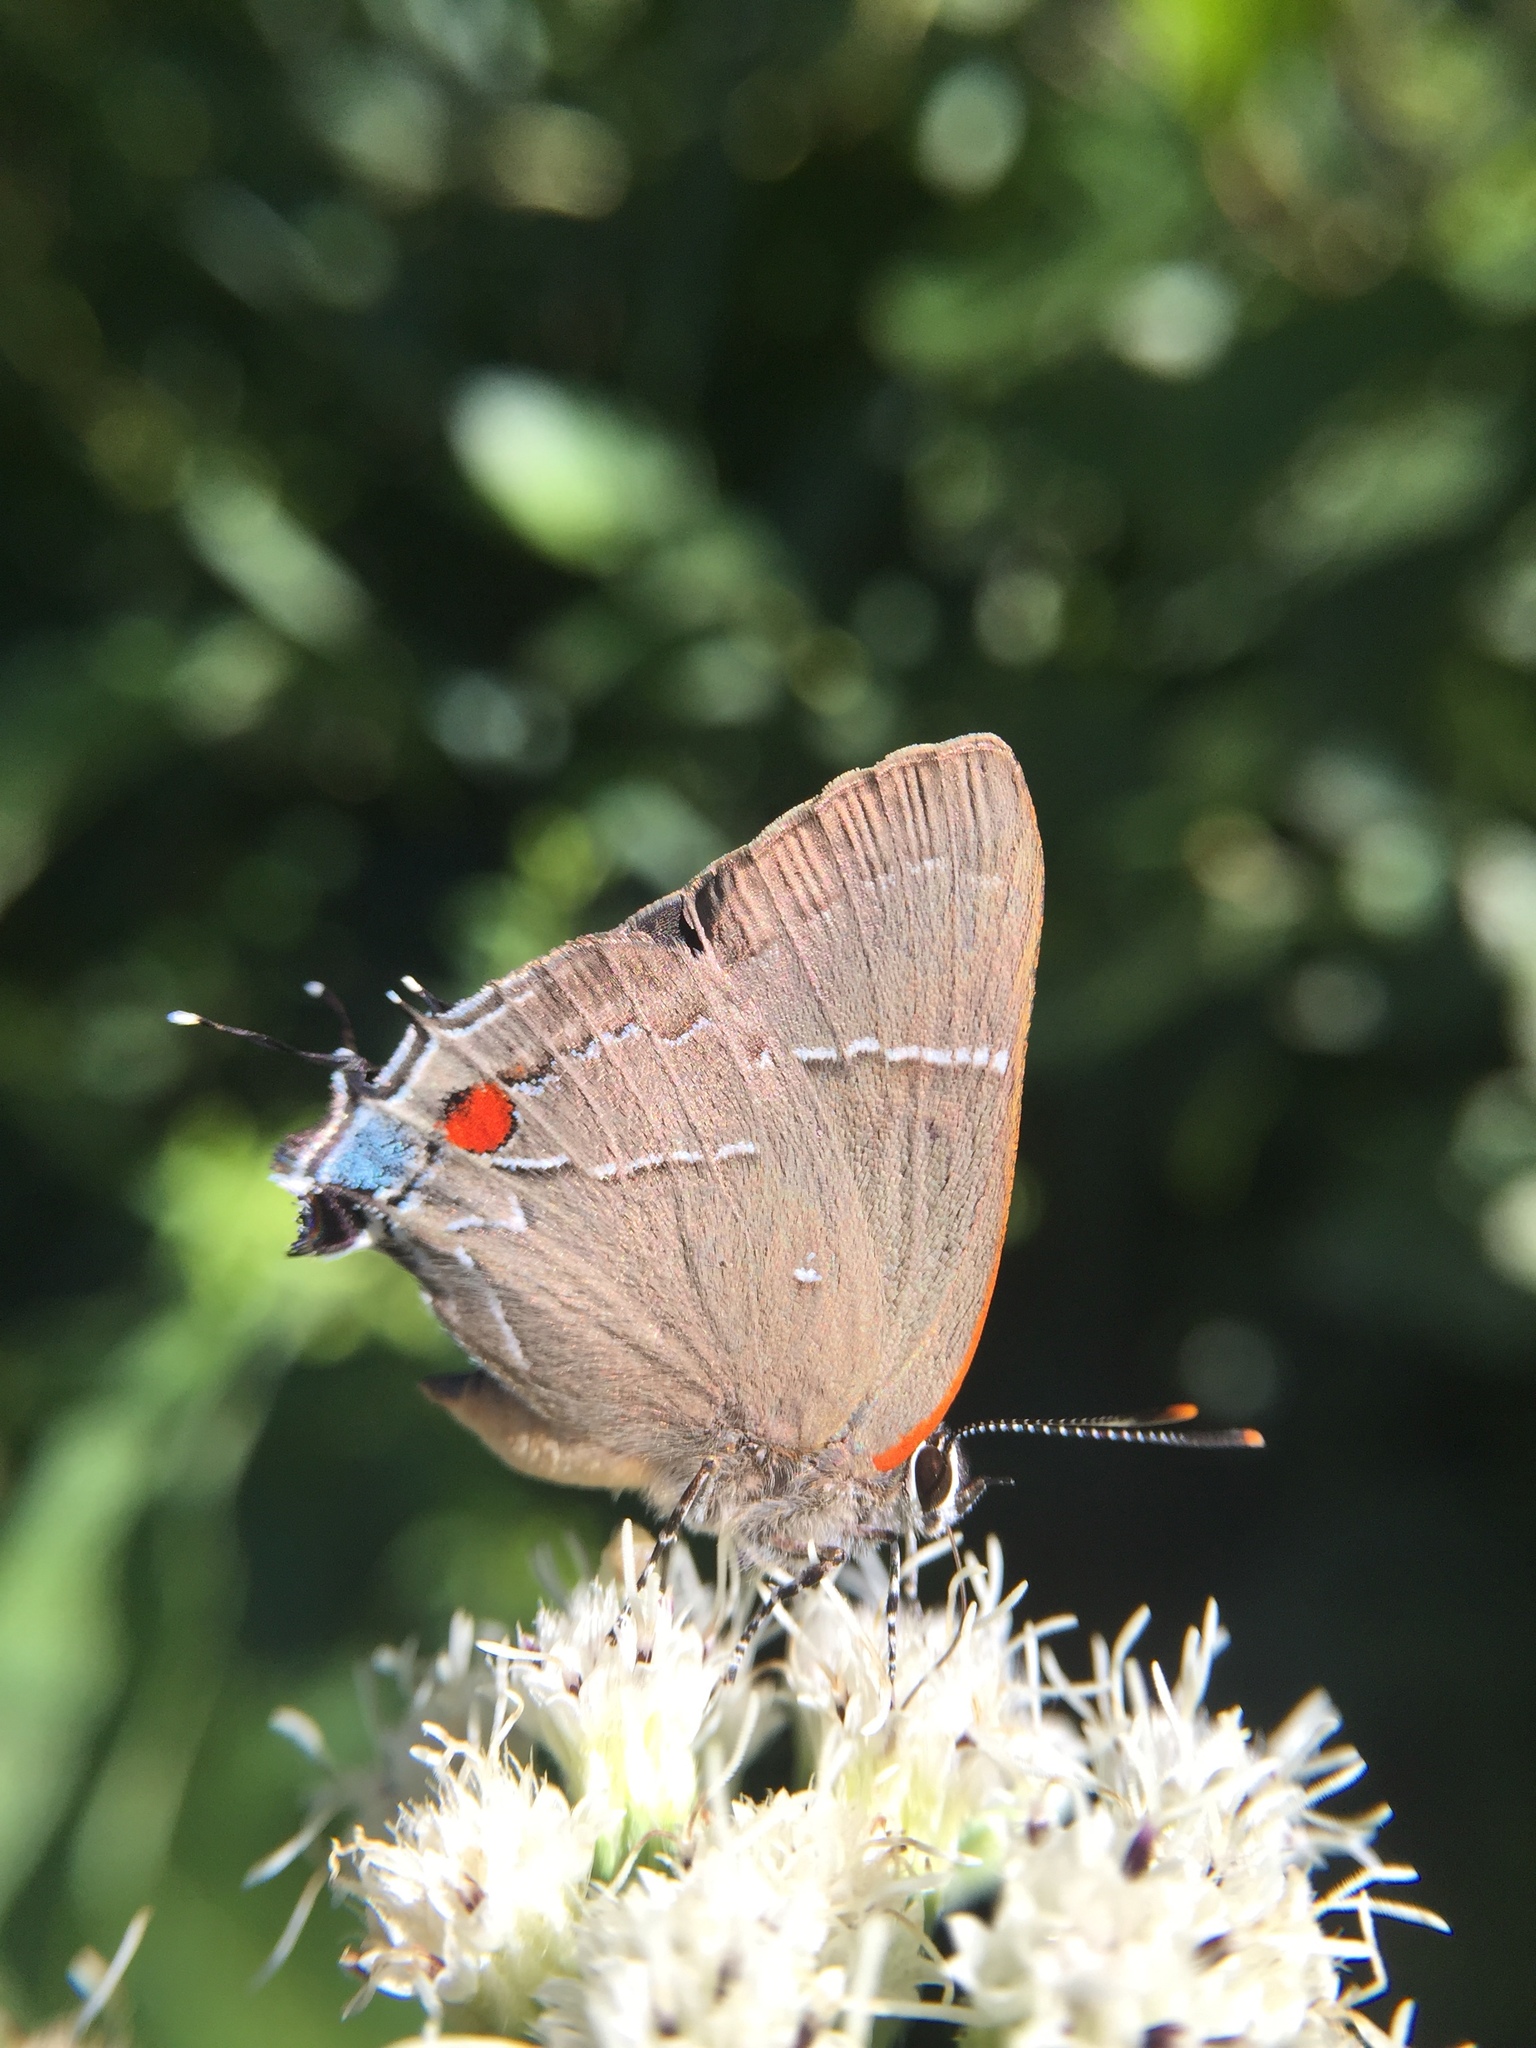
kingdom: Animalia
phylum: Arthropoda
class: Insecta
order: Lepidoptera
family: Lycaenidae
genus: Parrhasius
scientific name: Parrhasius m-album
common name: White m hairstreak
